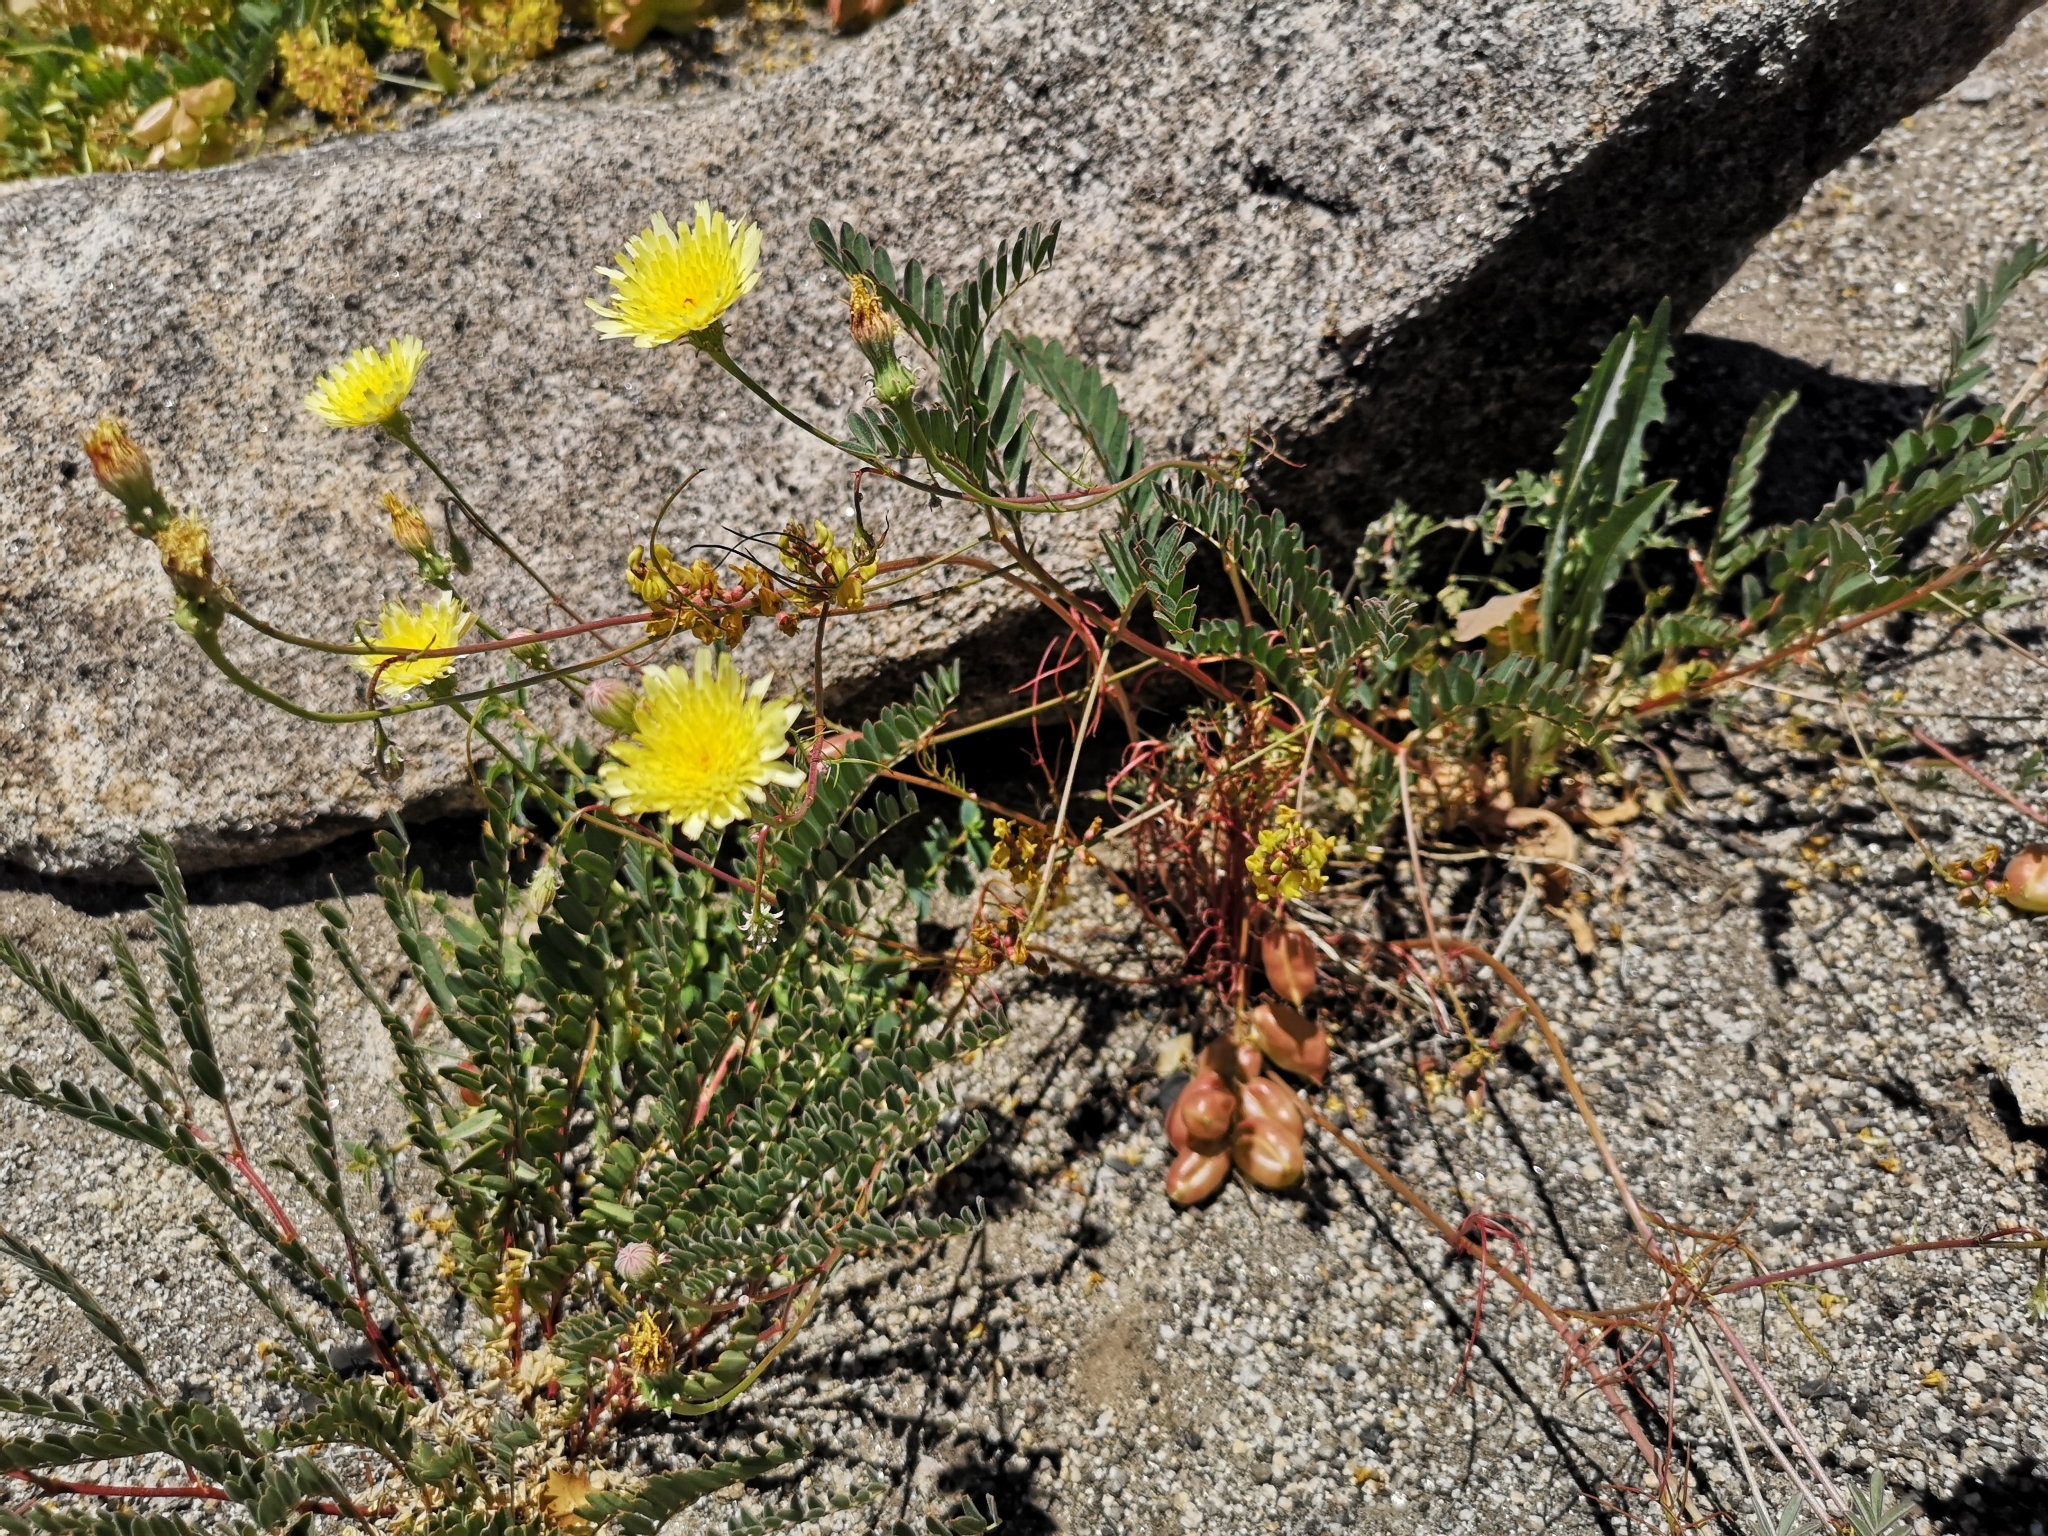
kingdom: Plantae
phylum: Tracheophyta
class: Magnoliopsida
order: Asterales
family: Asteraceae
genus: Malacothrix
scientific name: Malacothrix glabrata
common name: Smooth desert-dandelion
